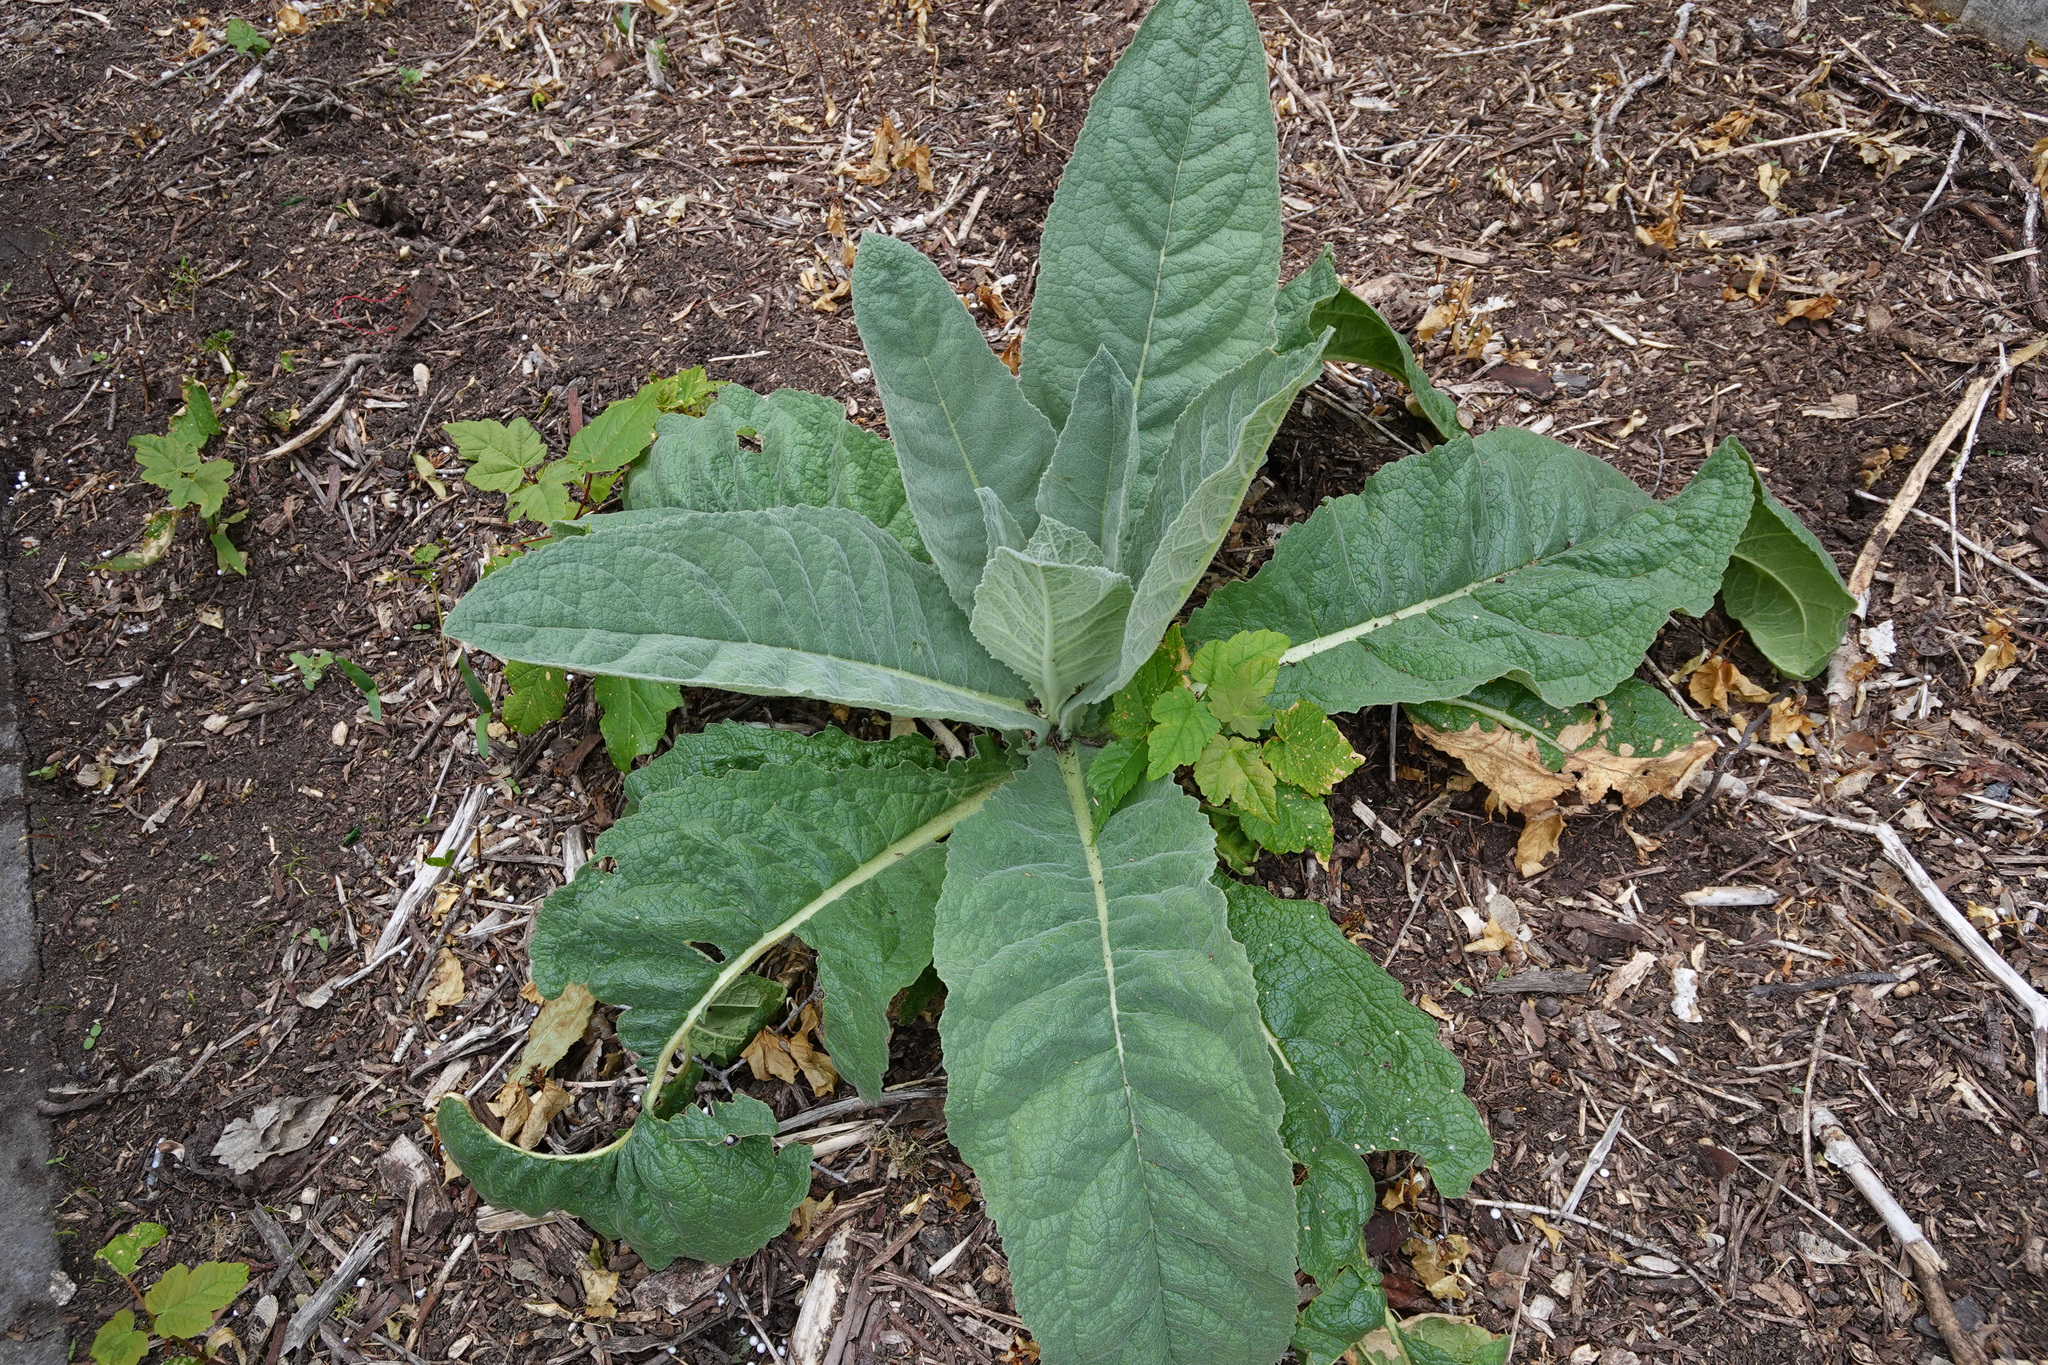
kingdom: Plantae
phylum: Tracheophyta
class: Magnoliopsida
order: Lamiales
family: Scrophulariaceae
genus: Verbascum
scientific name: Verbascum thapsus
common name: Common mullein
